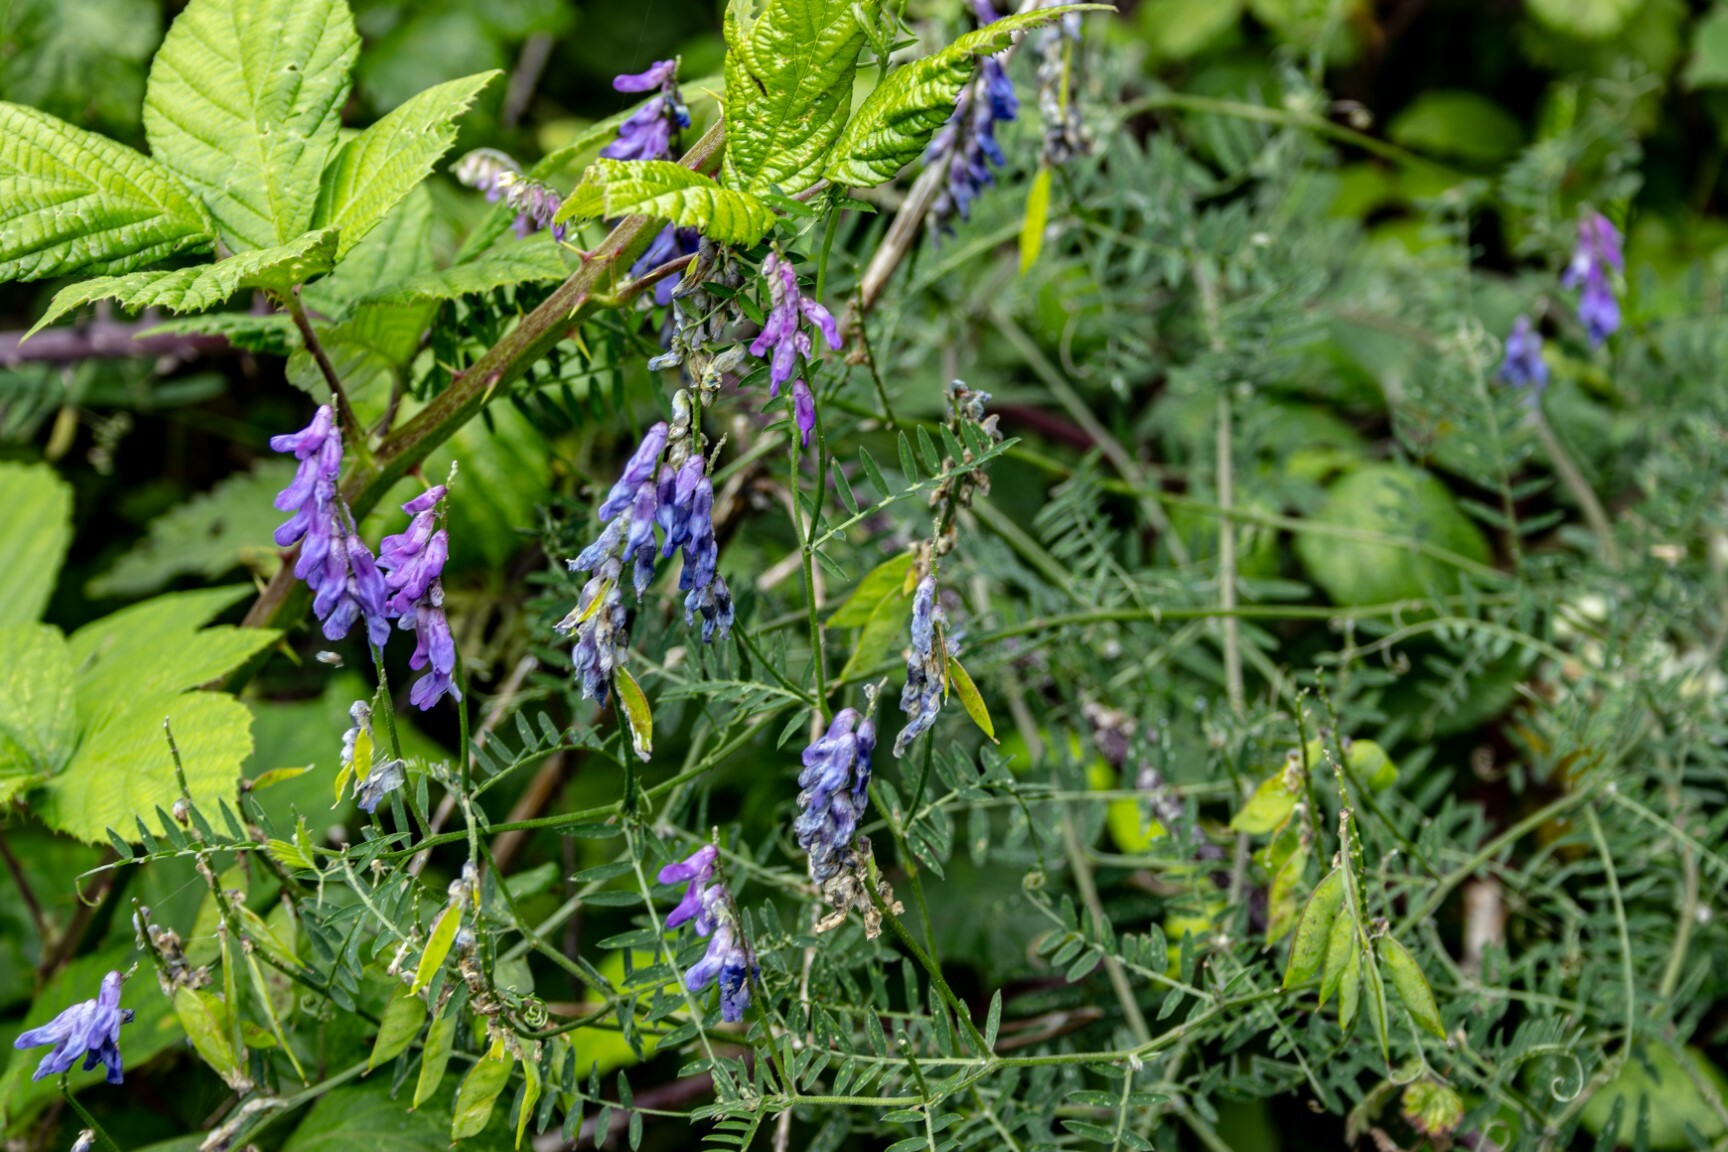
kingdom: Plantae
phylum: Tracheophyta
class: Magnoliopsida
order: Fabales
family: Fabaceae
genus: Vicia
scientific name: Vicia cracca
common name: Bird vetch
